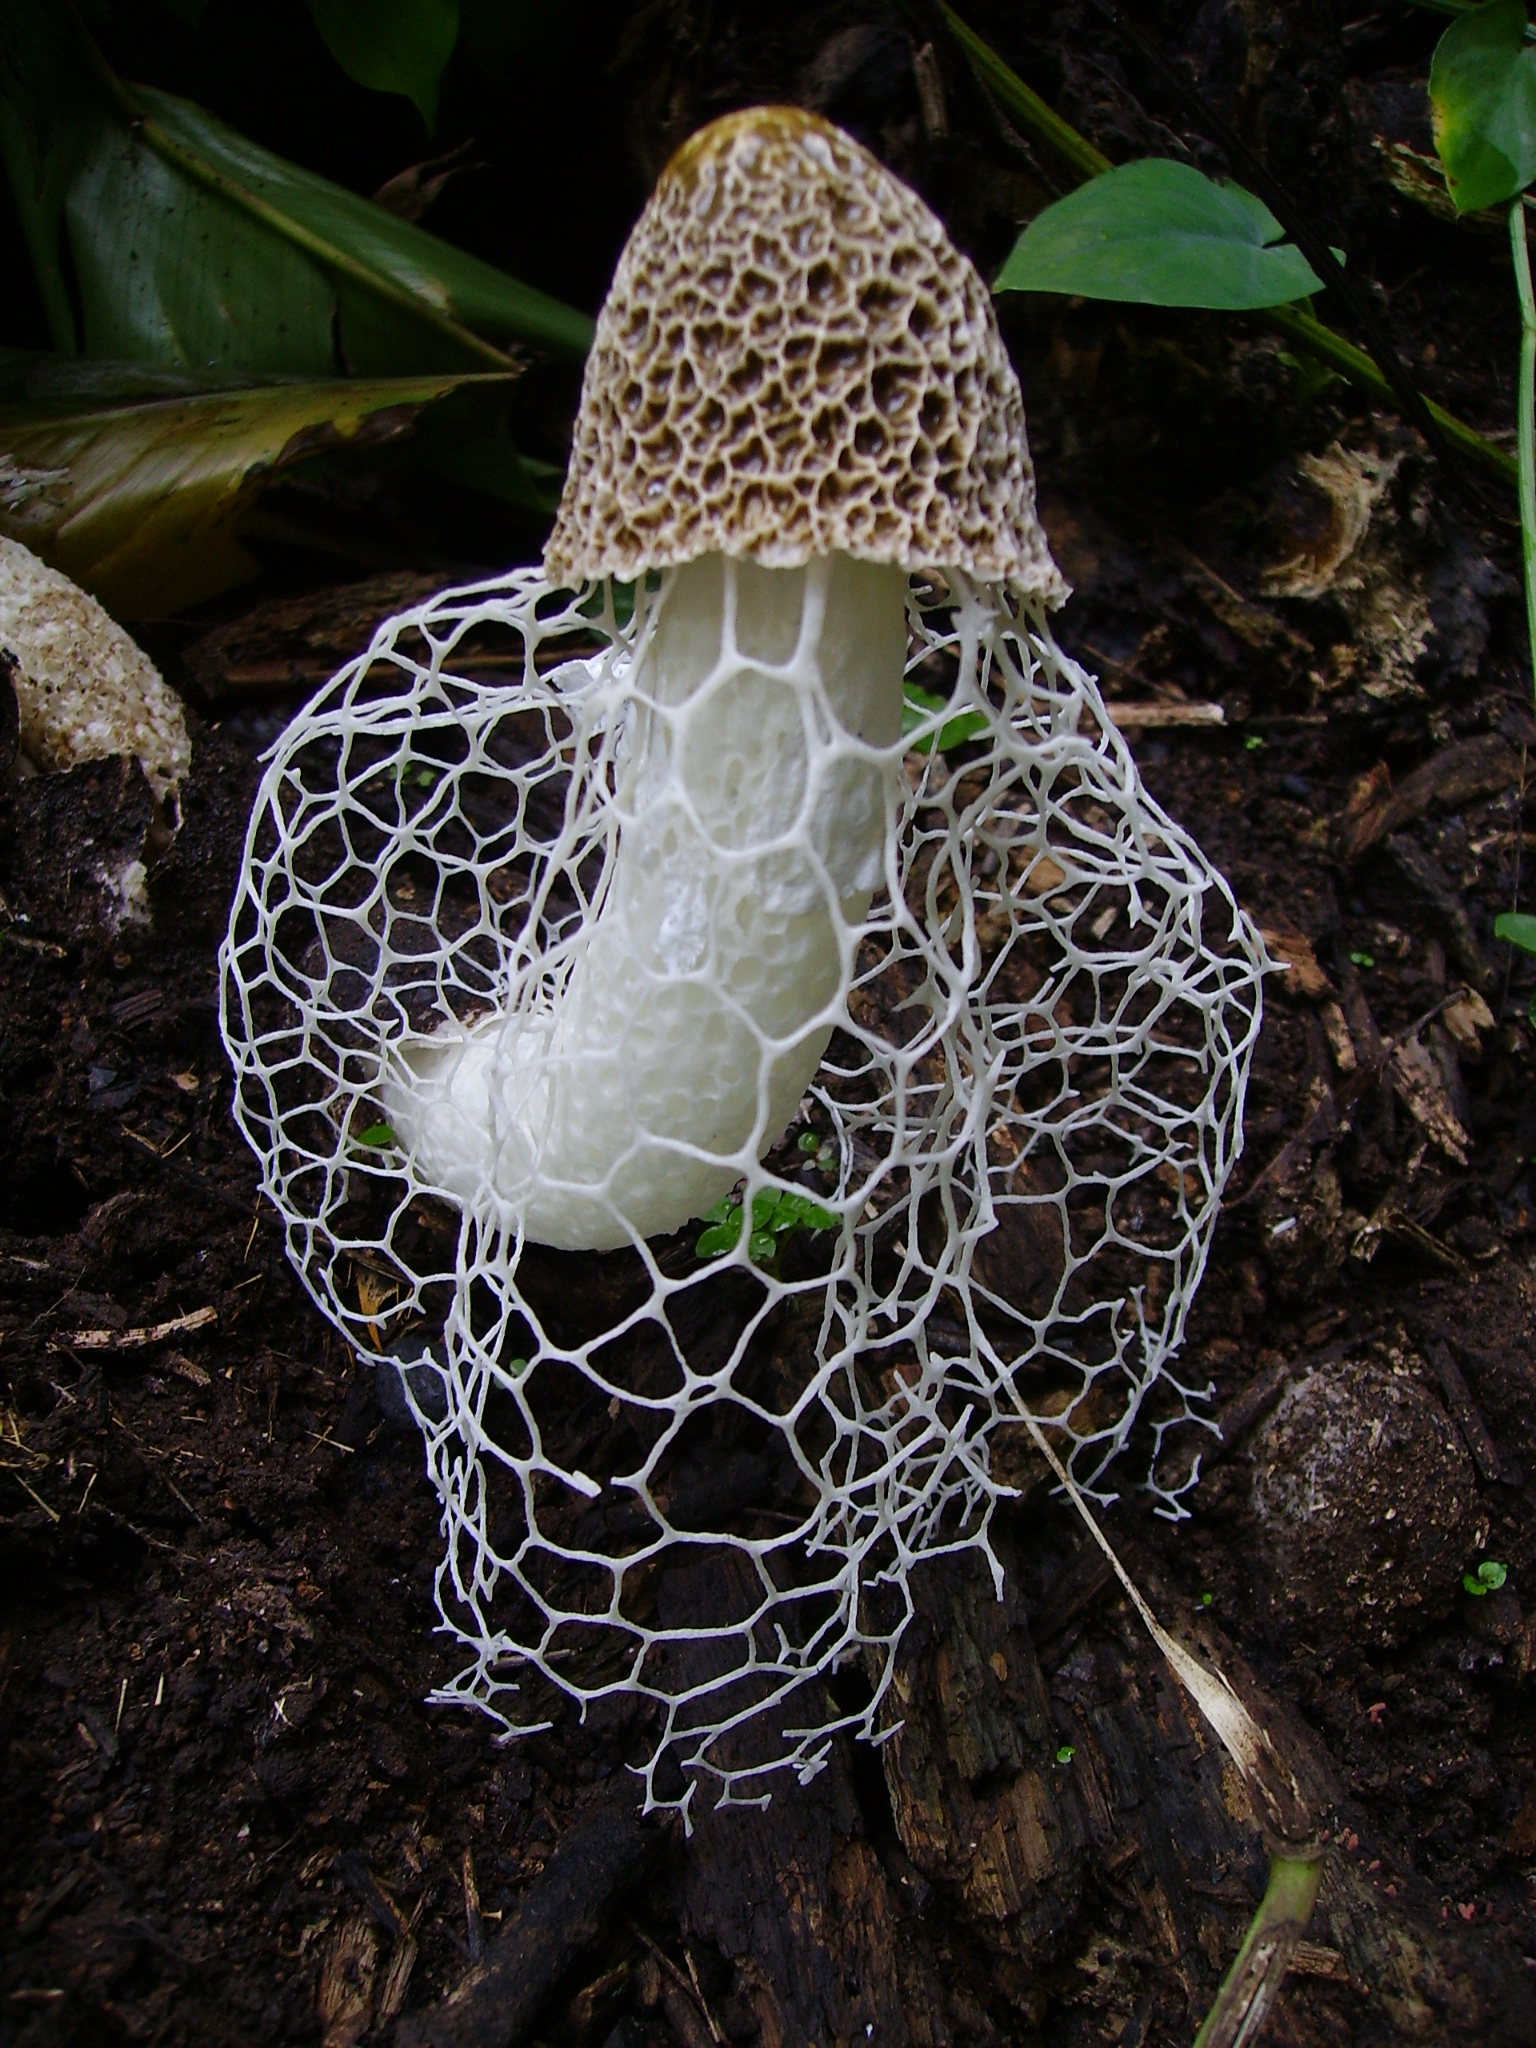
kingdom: Fungi
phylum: Basidiomycota
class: Agaricomycetes
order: Phallales
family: Phallaceae
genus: Phallus
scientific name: Phallus indusiatus
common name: Bridal veil stinkhorn
